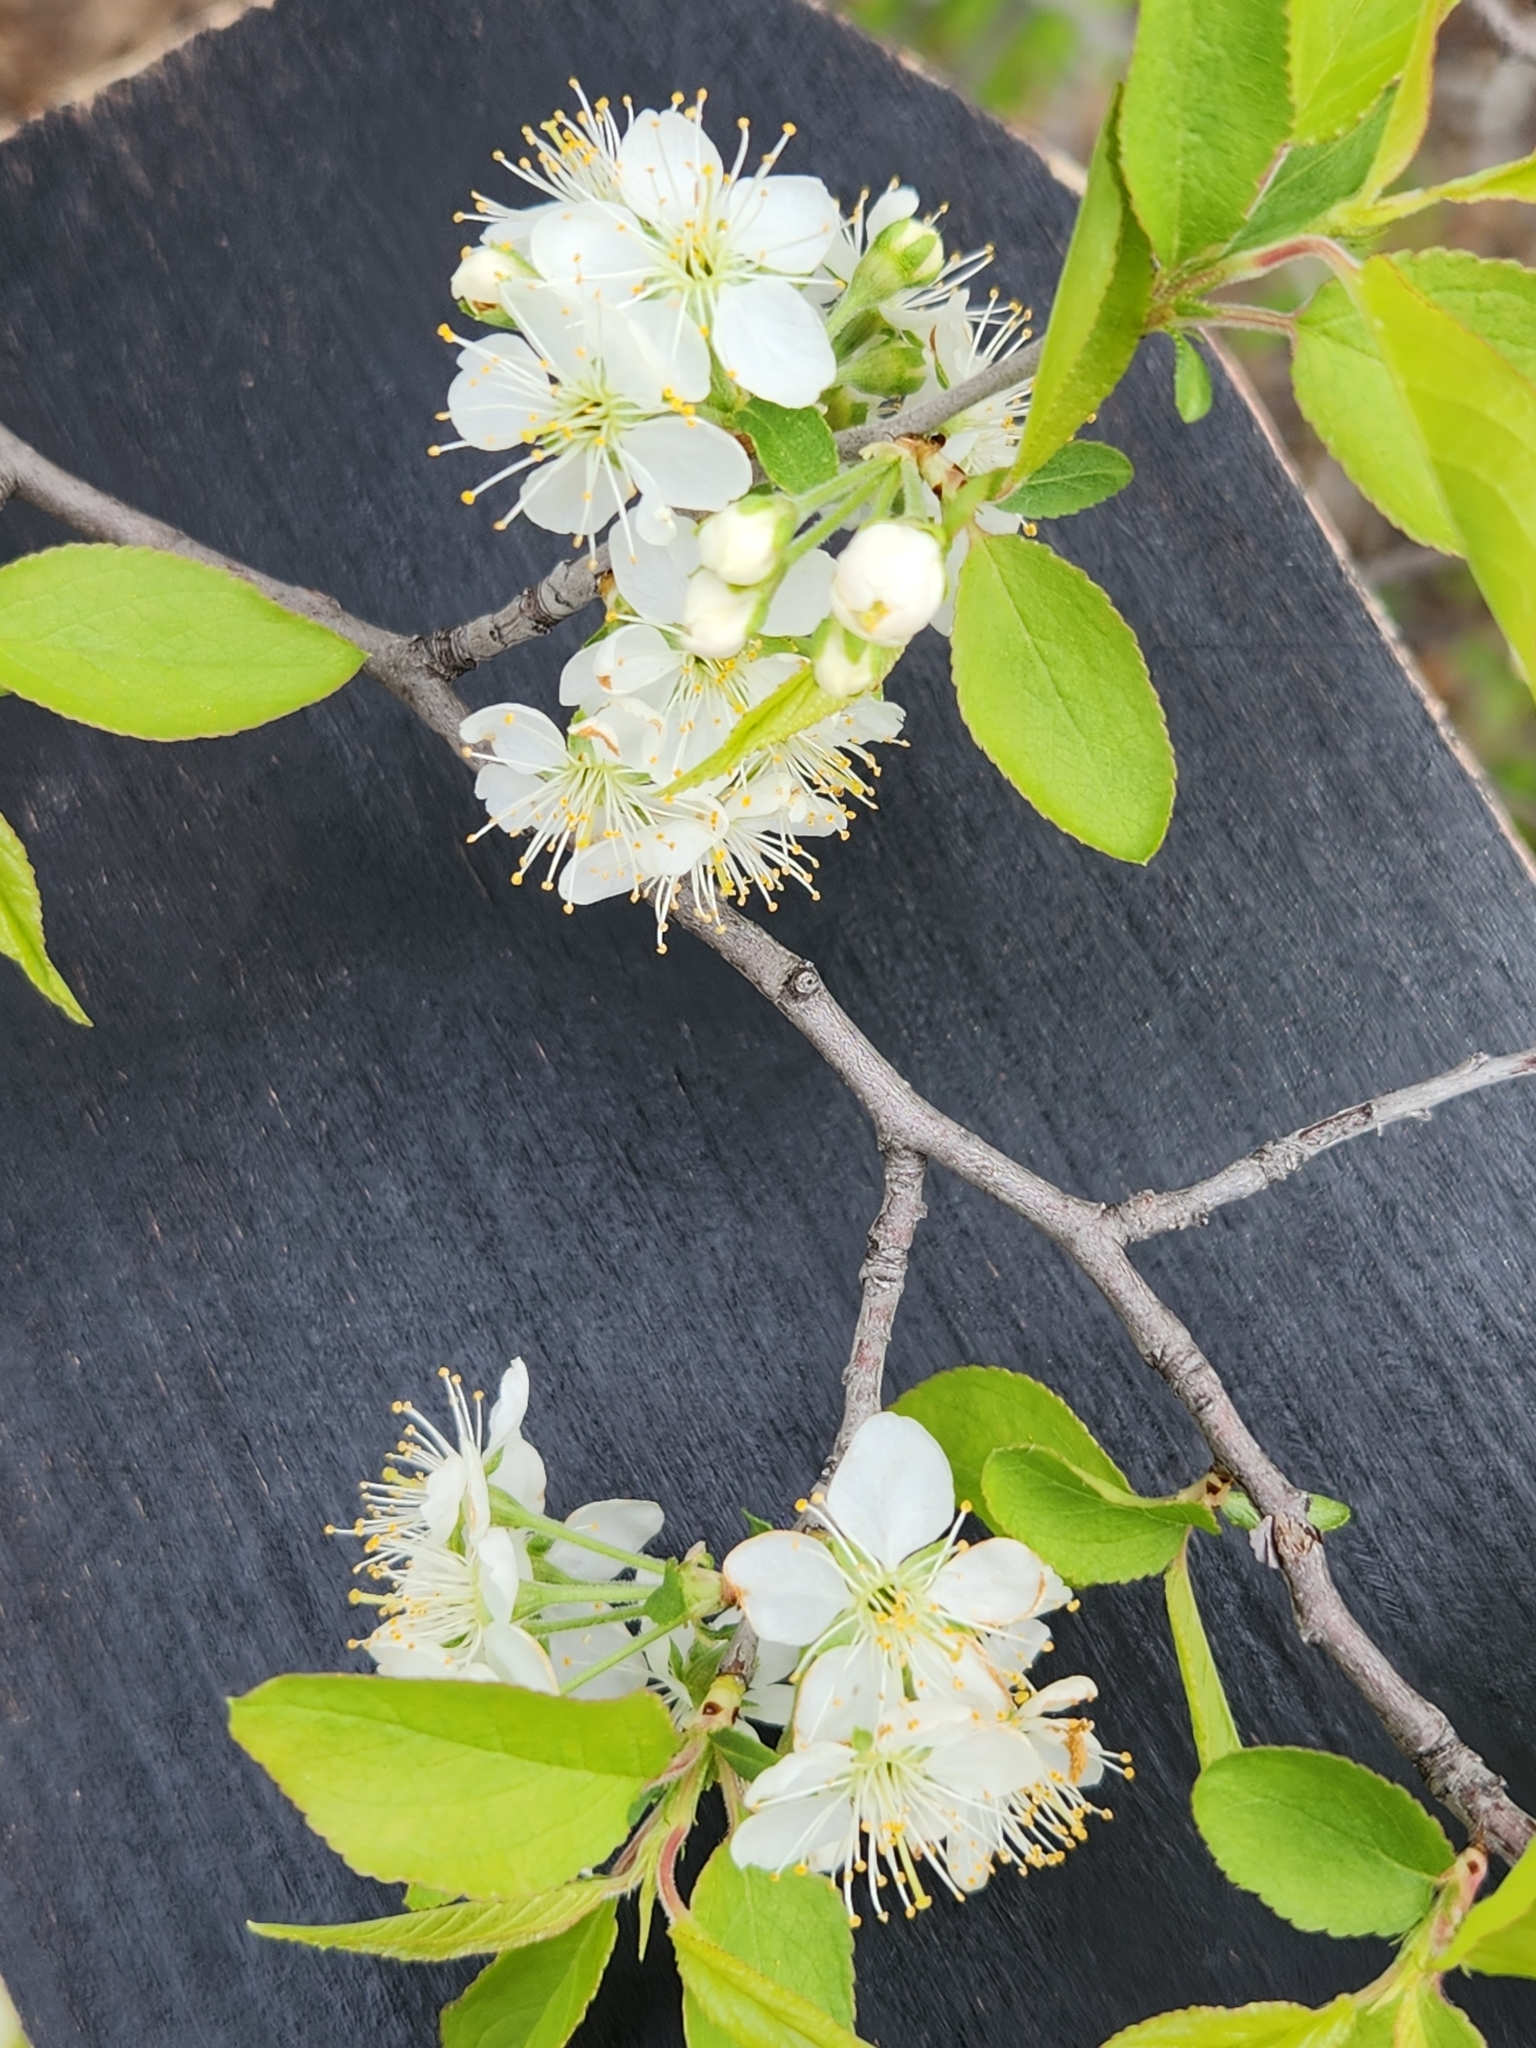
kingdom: Plantae
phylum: Tracheophyta
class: Magnoliopsida
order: Rosales
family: Rosaceae
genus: Prunus
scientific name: Prunus murrayana
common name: Murray plum
